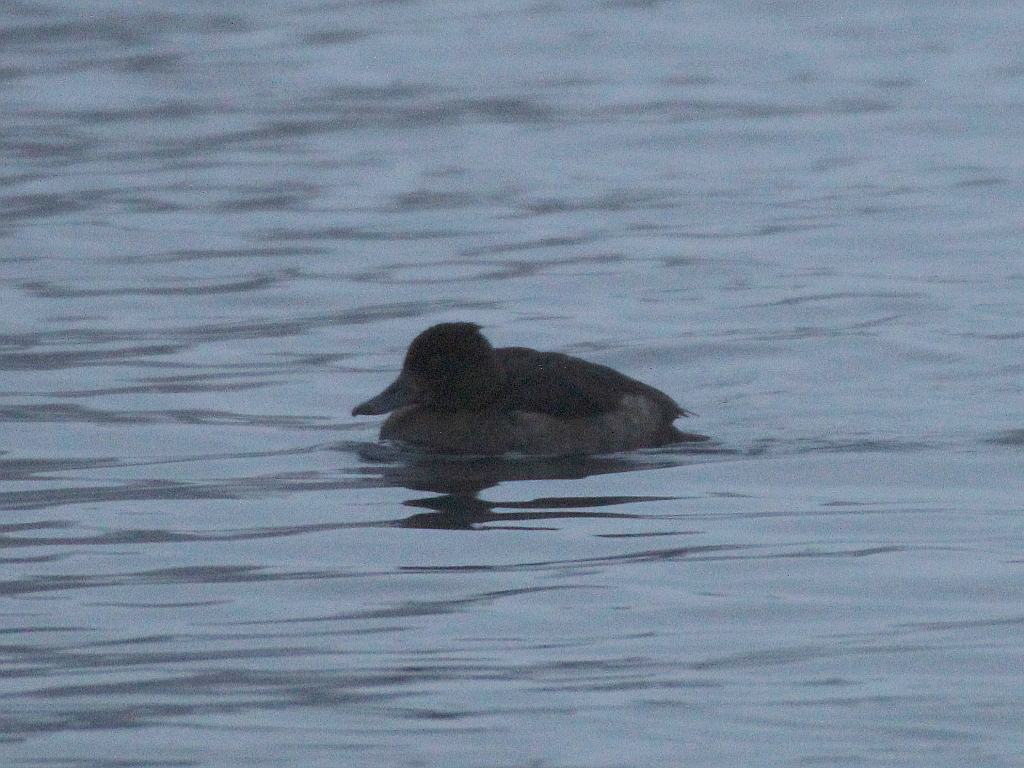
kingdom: Animalia
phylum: Chordata
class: Aves
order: Anseriformes
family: Anatidae
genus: Aythya
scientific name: Aythya fuligula
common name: Tufted duck
